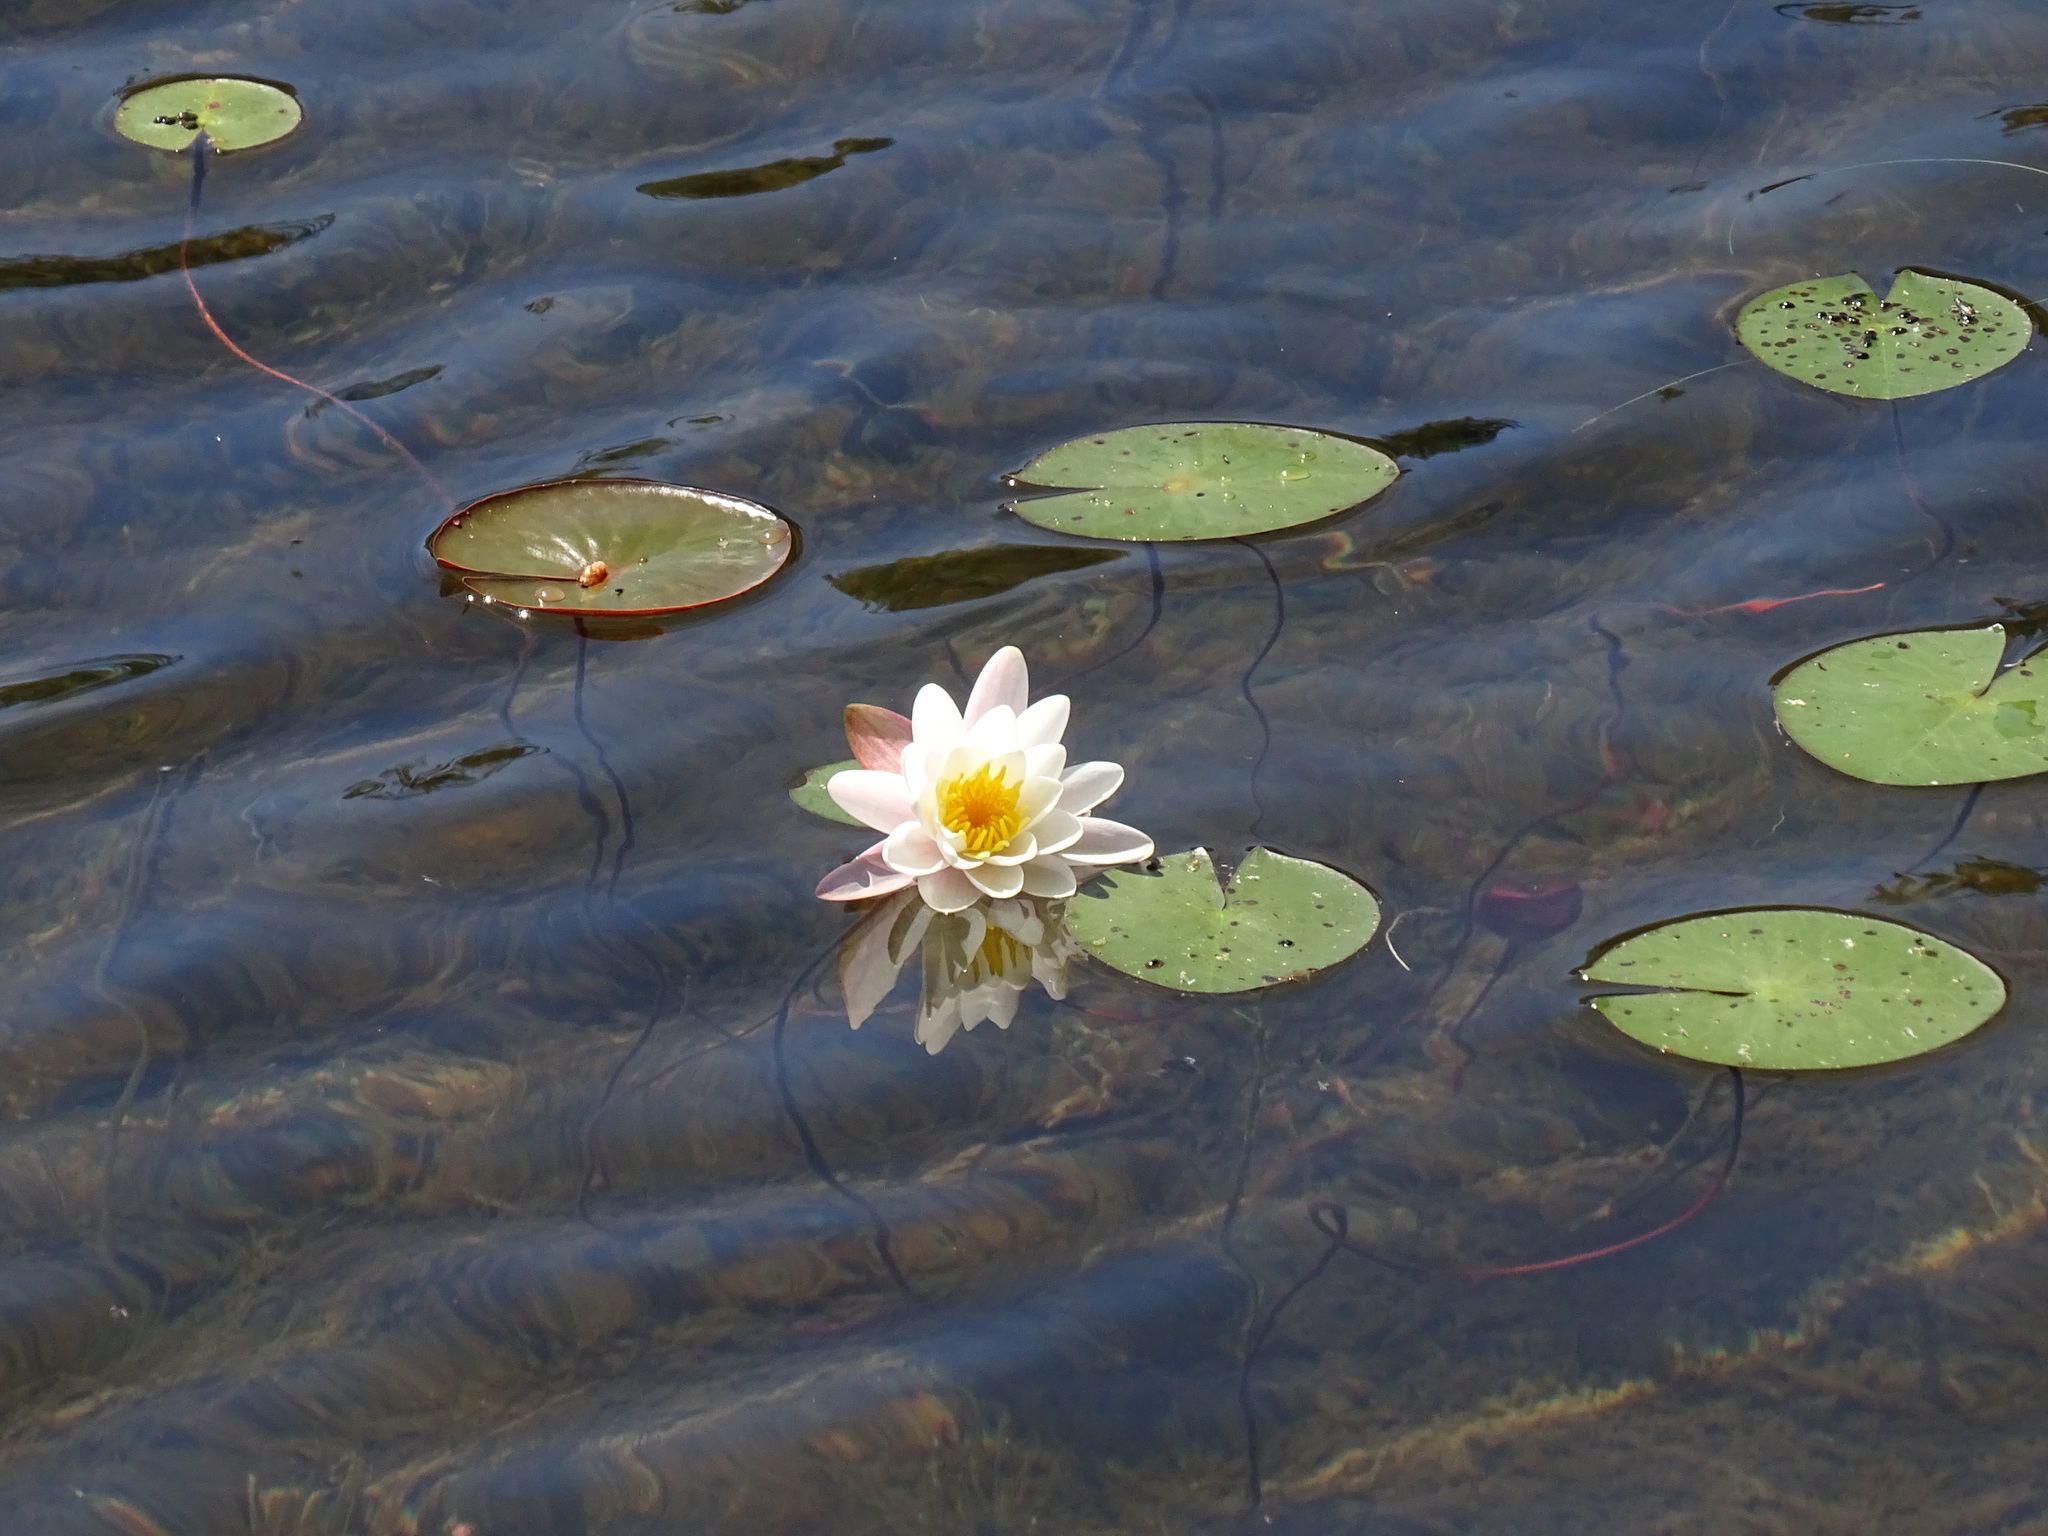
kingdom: Plantae
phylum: Tracheophyta
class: Magnoliopsida
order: Nymphaeales
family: Nymphaeaceae
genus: Nymphaea
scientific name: Nymphaea odorata
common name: Fragrant water-lily
